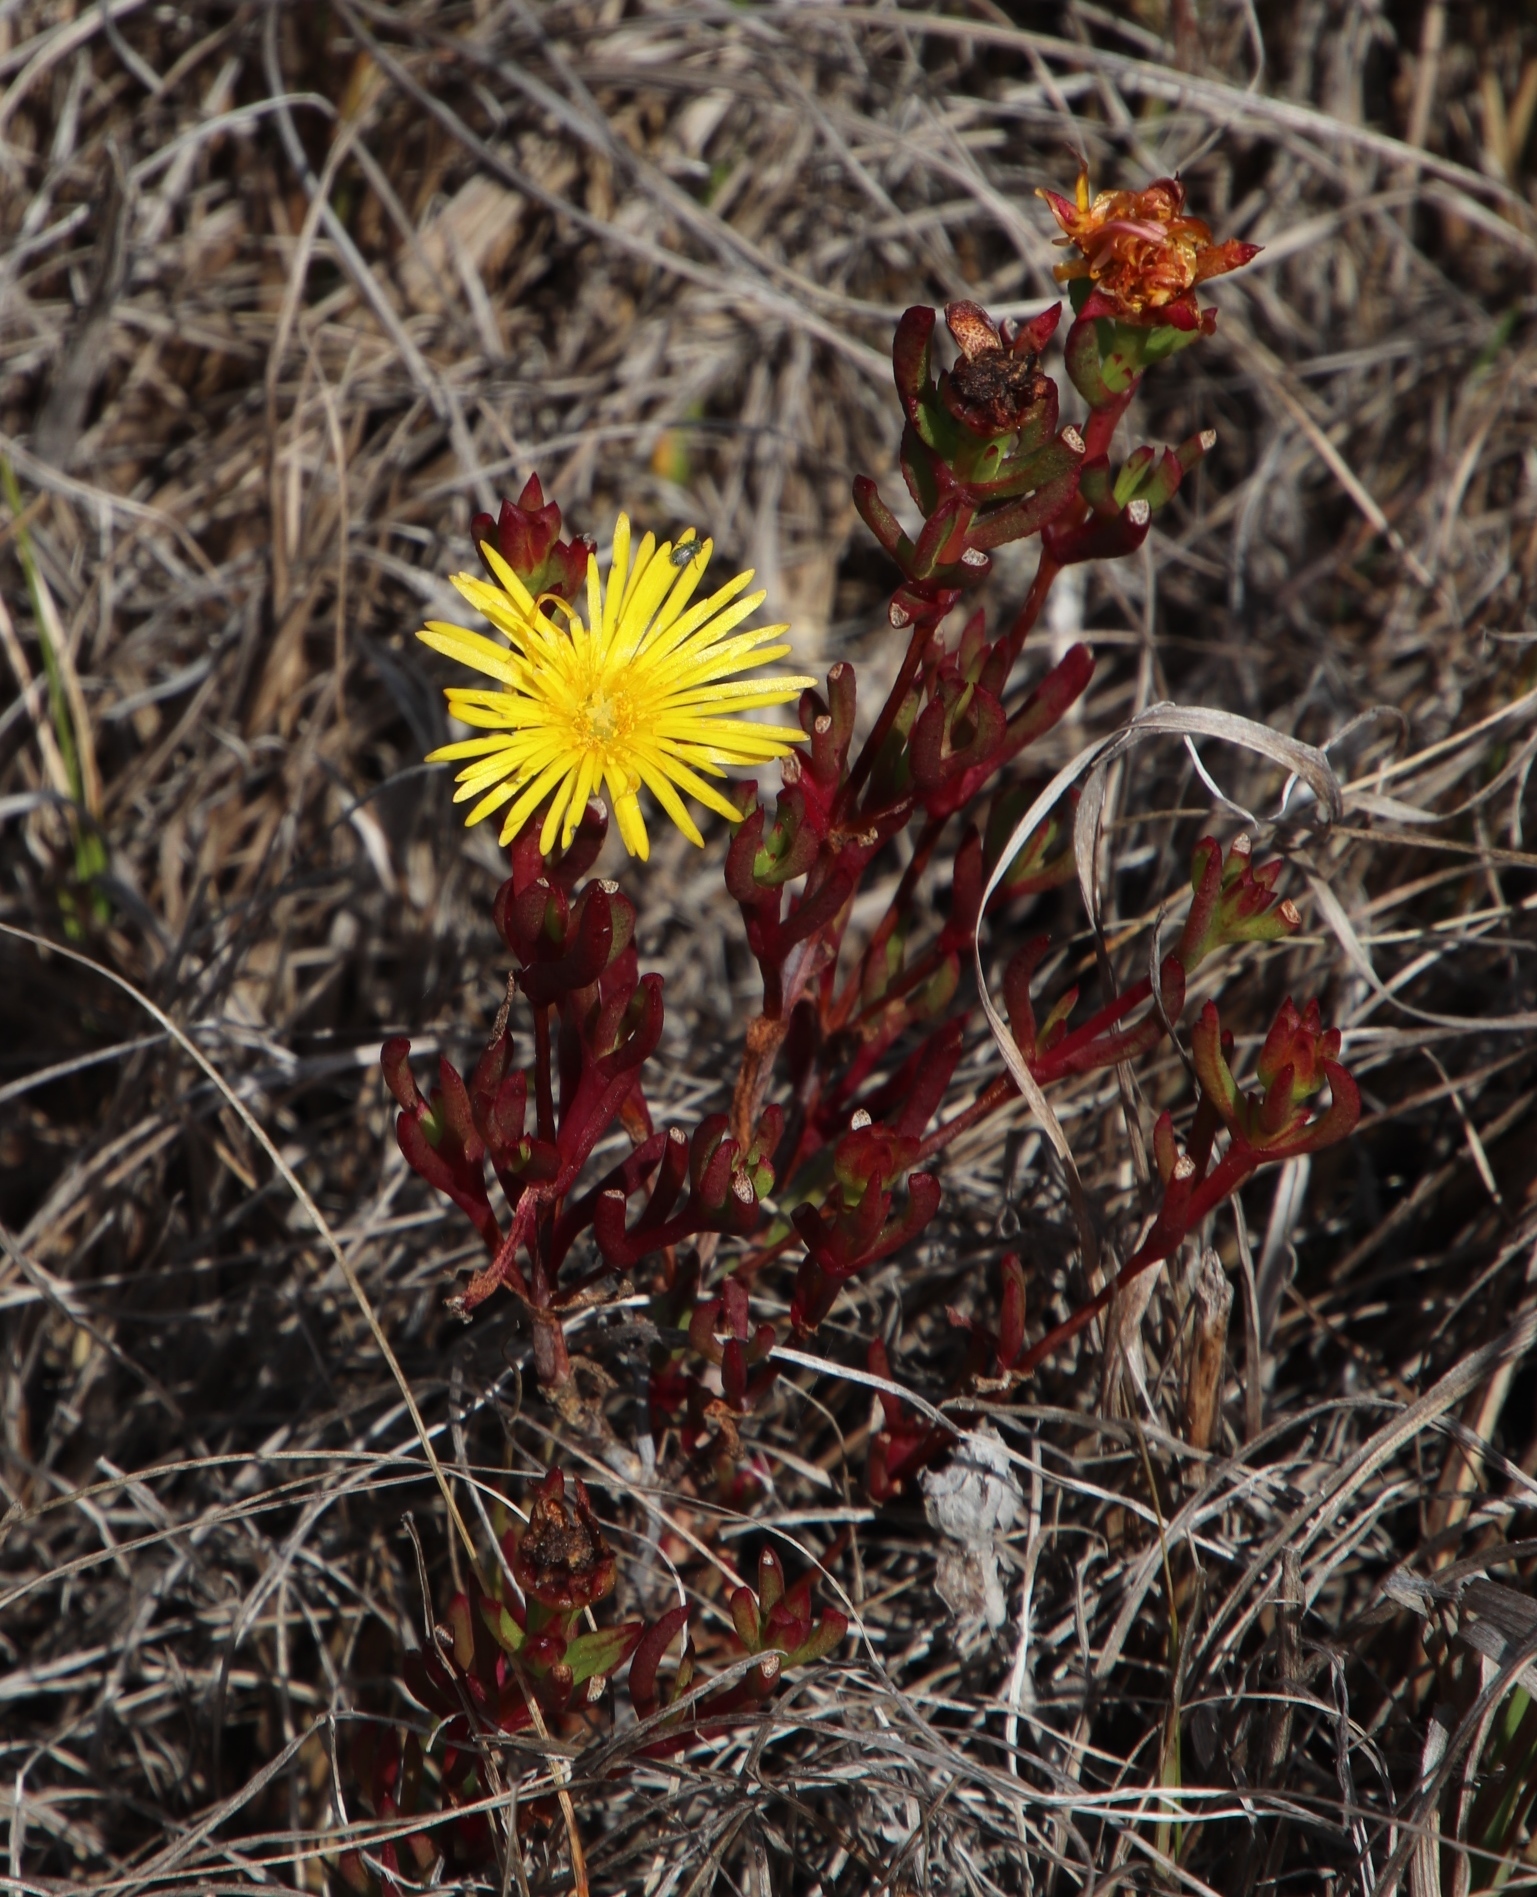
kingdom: Plantae
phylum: Tracheophyta
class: Magnoliopsida
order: Caryophyllales
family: Aizoaceae
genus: Lampranthus
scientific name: Lampranthus promontorii
